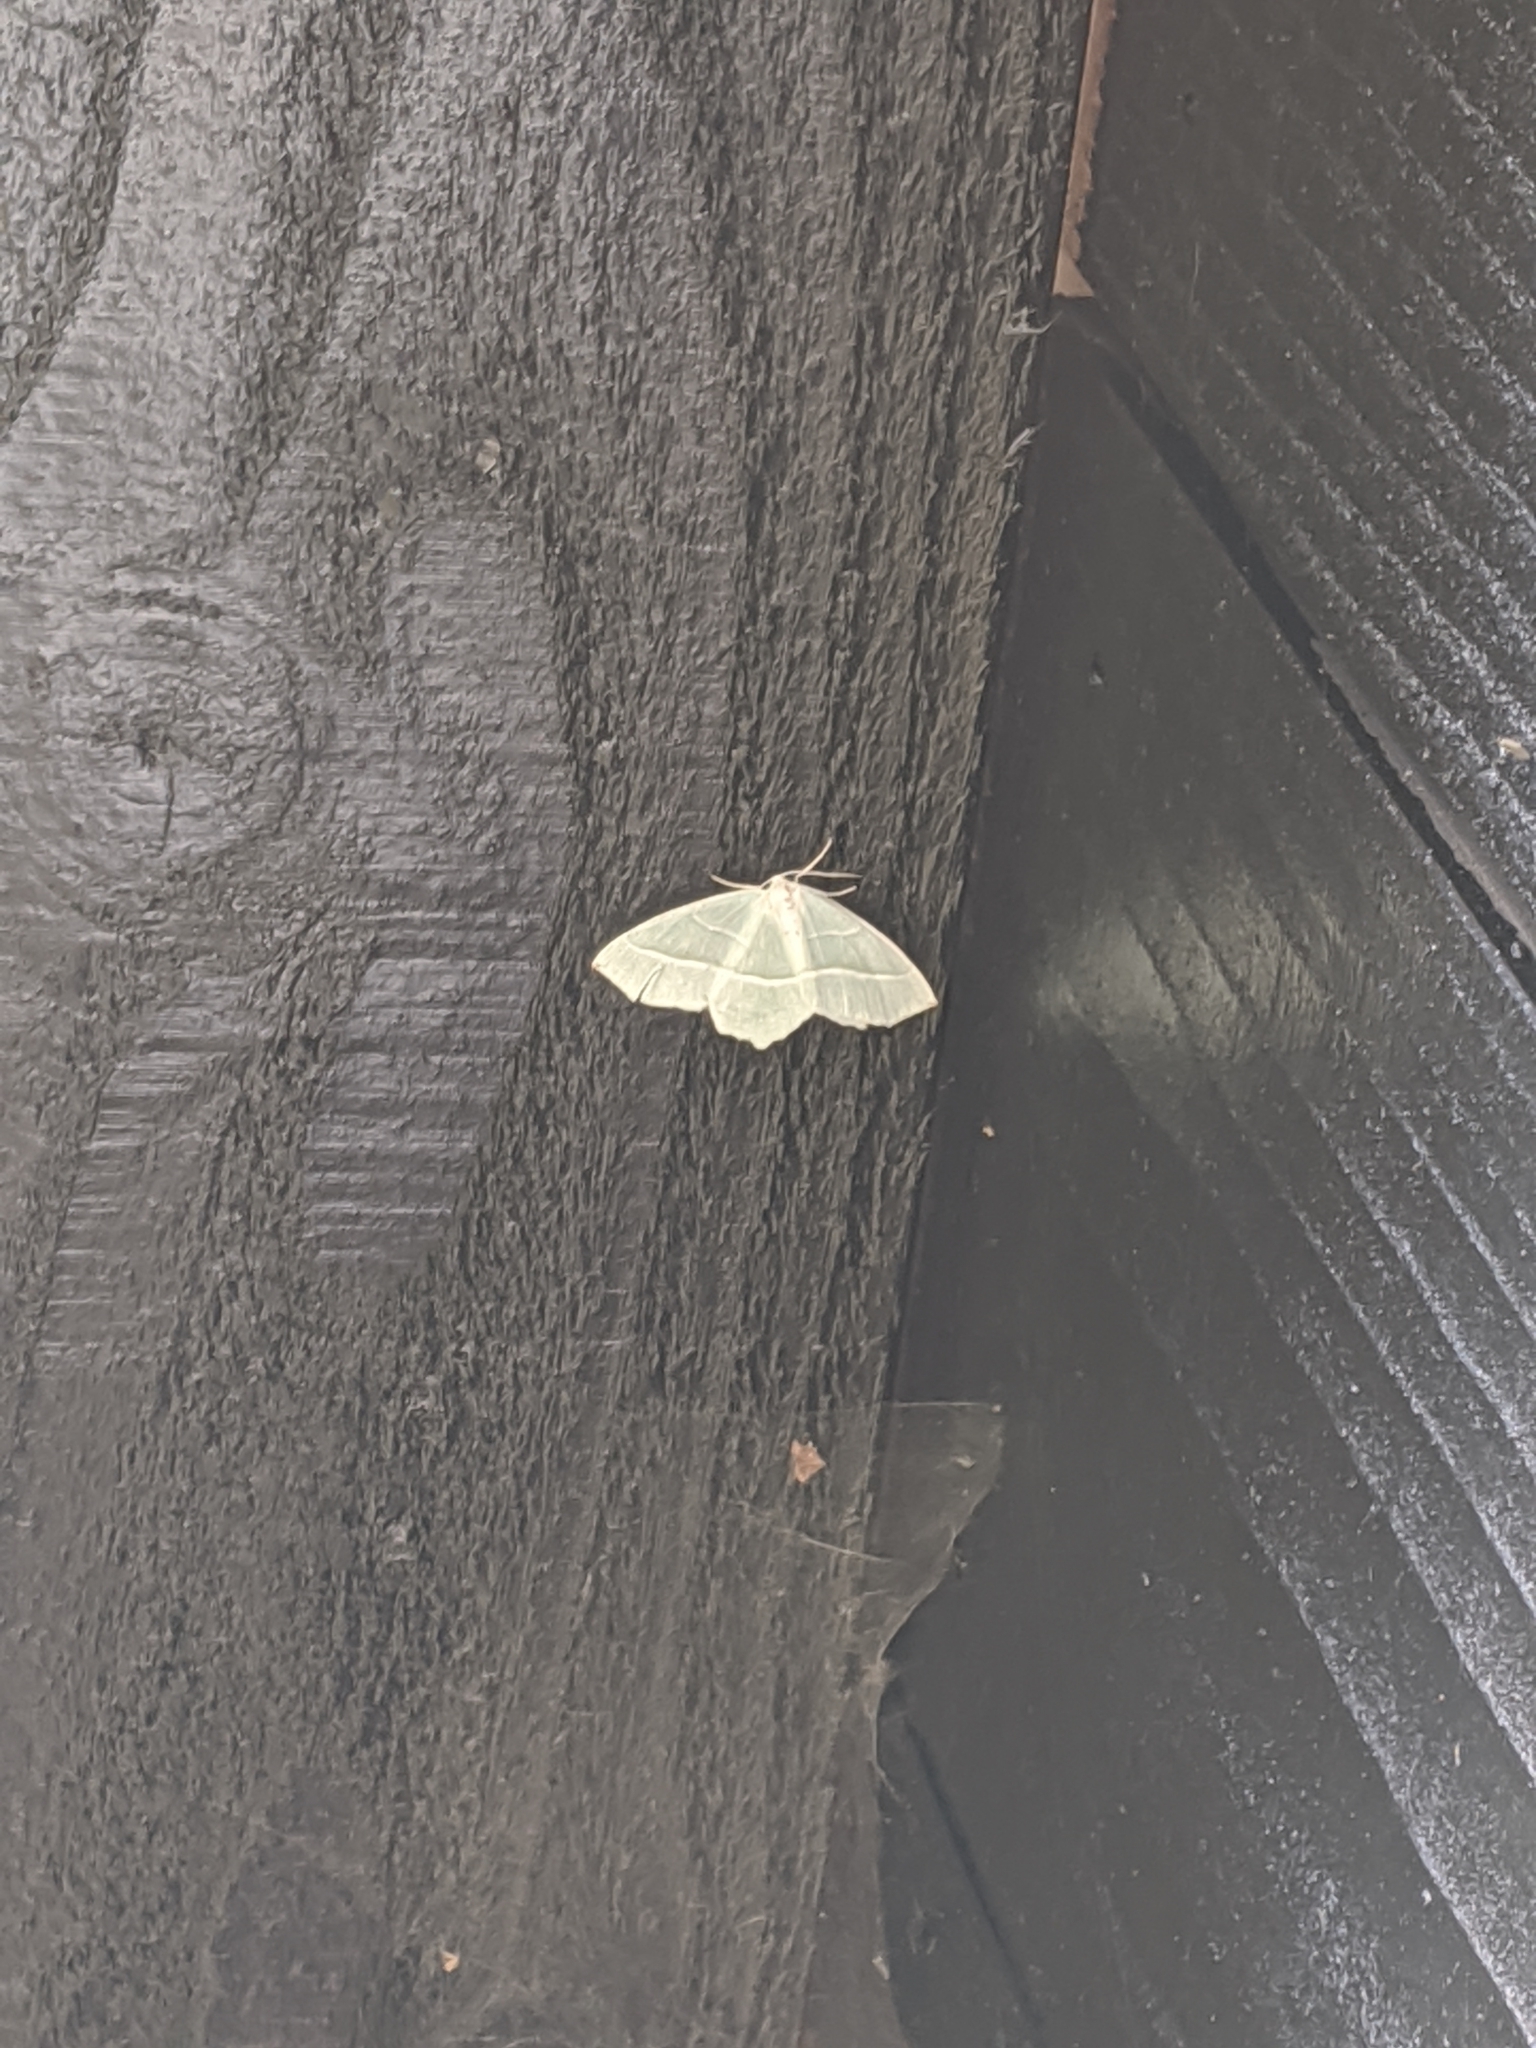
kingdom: Animalia
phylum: Arthropoda
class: Insecta
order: Lepidoptera
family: Geometridae
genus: Campaea
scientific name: Campaea margaritaria
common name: Light emerald
